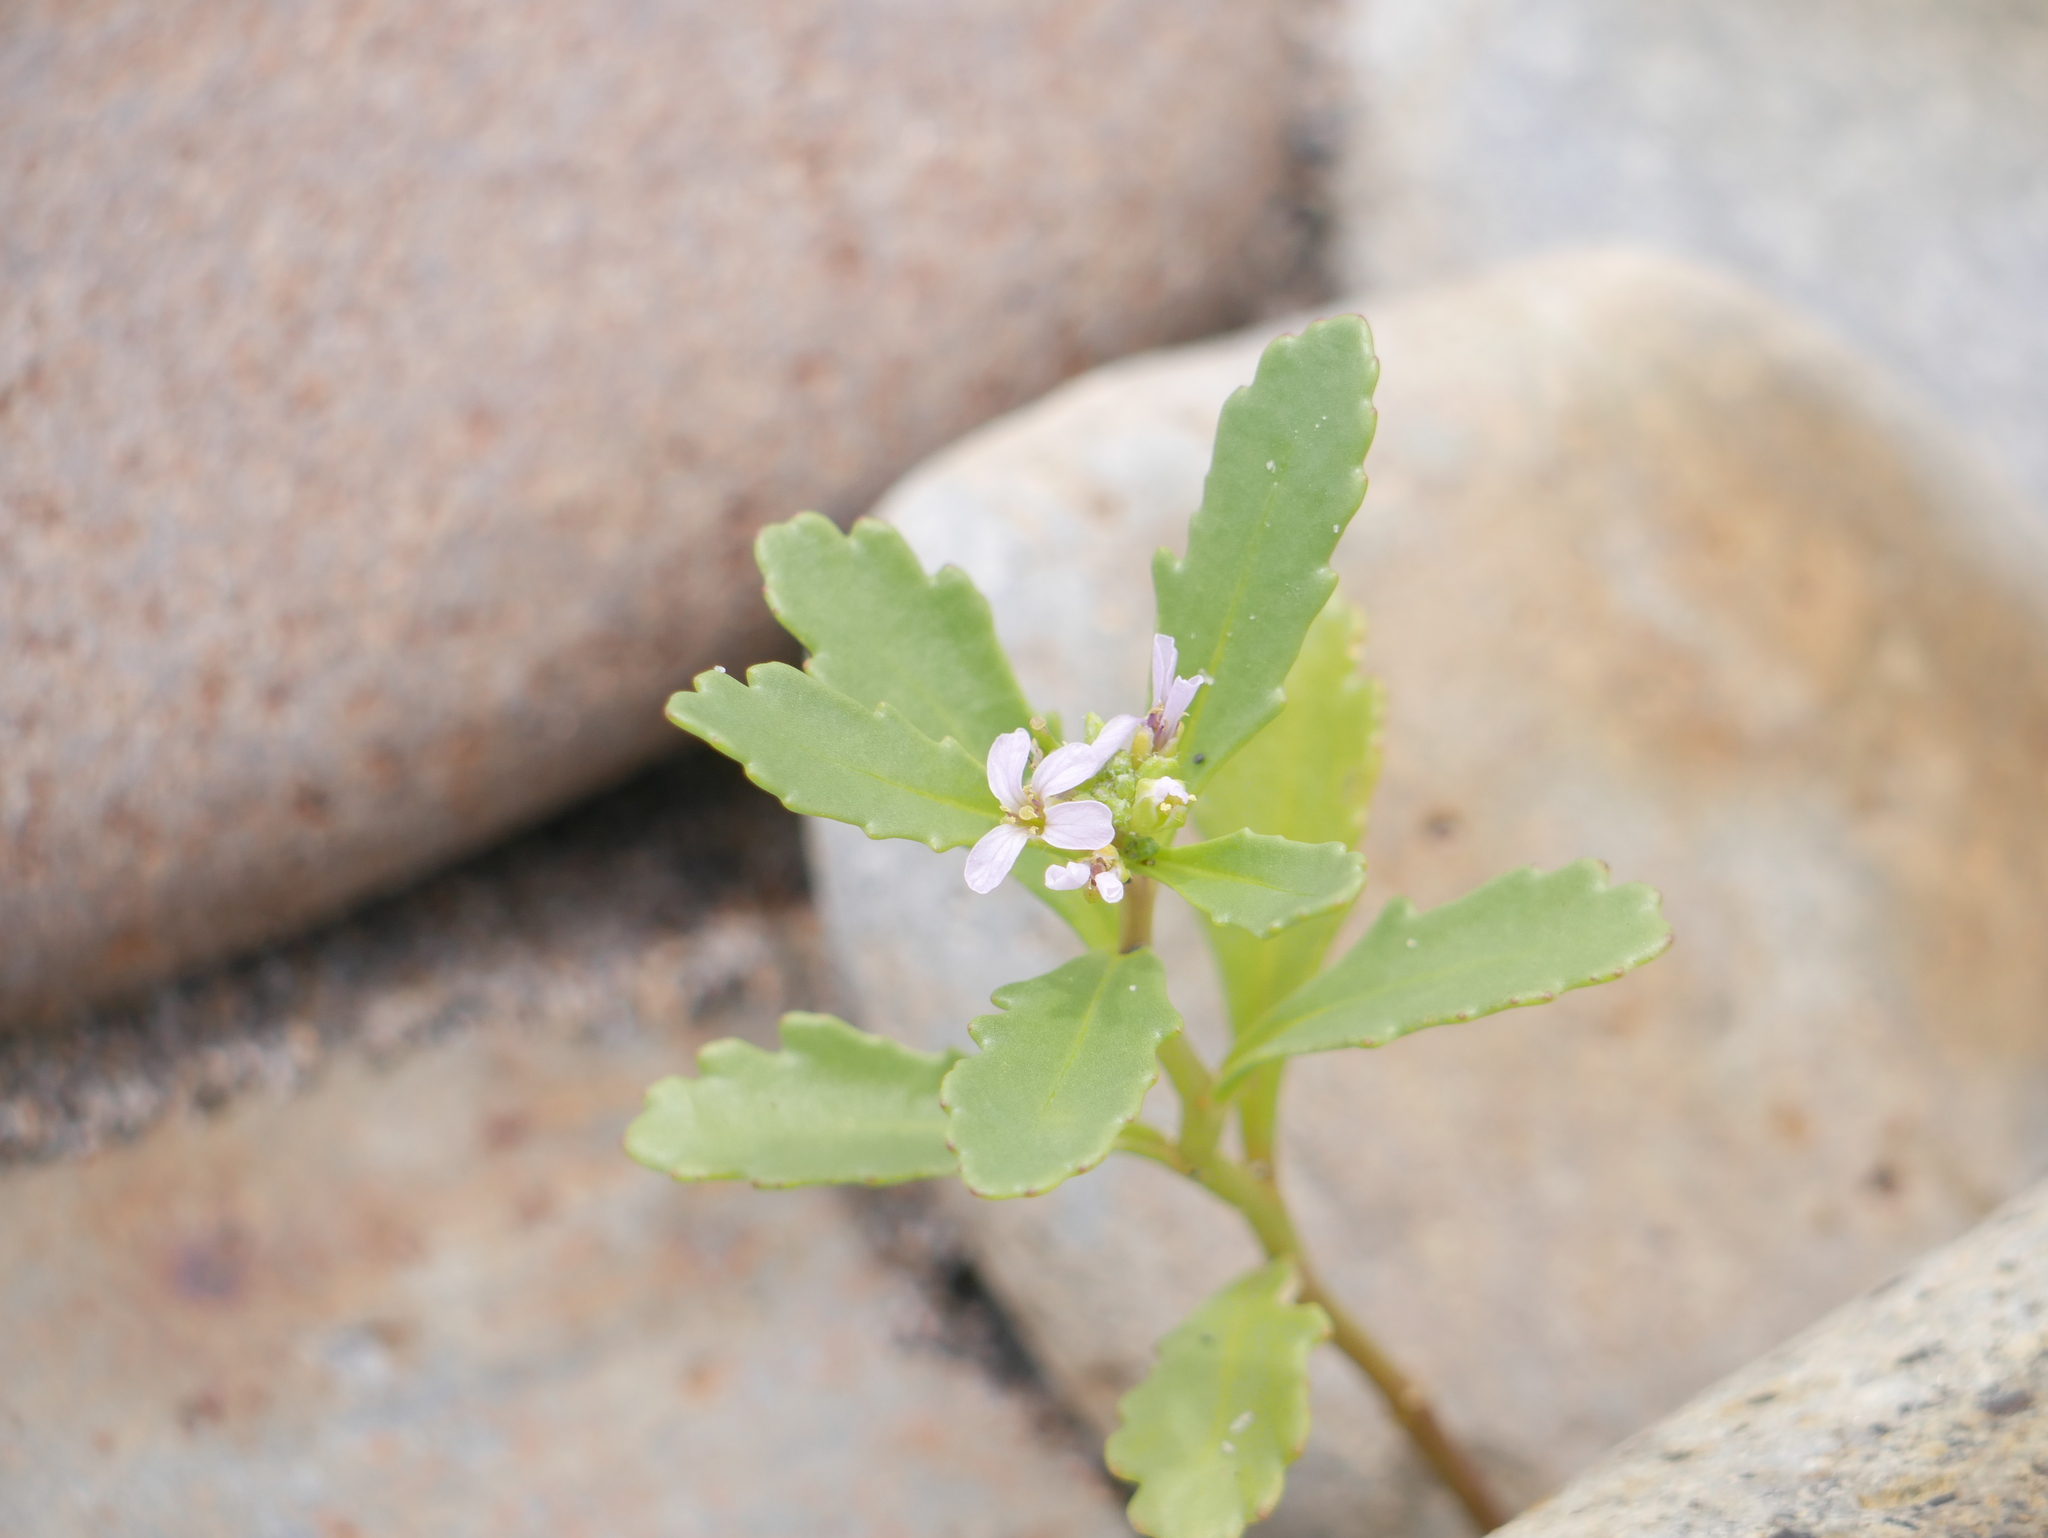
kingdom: Plantae
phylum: Tracheophyta
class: Magnoliopsida
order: Brassicales
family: Brassicaceae
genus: Cakile
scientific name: Cakile edentula
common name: American sea rocket
